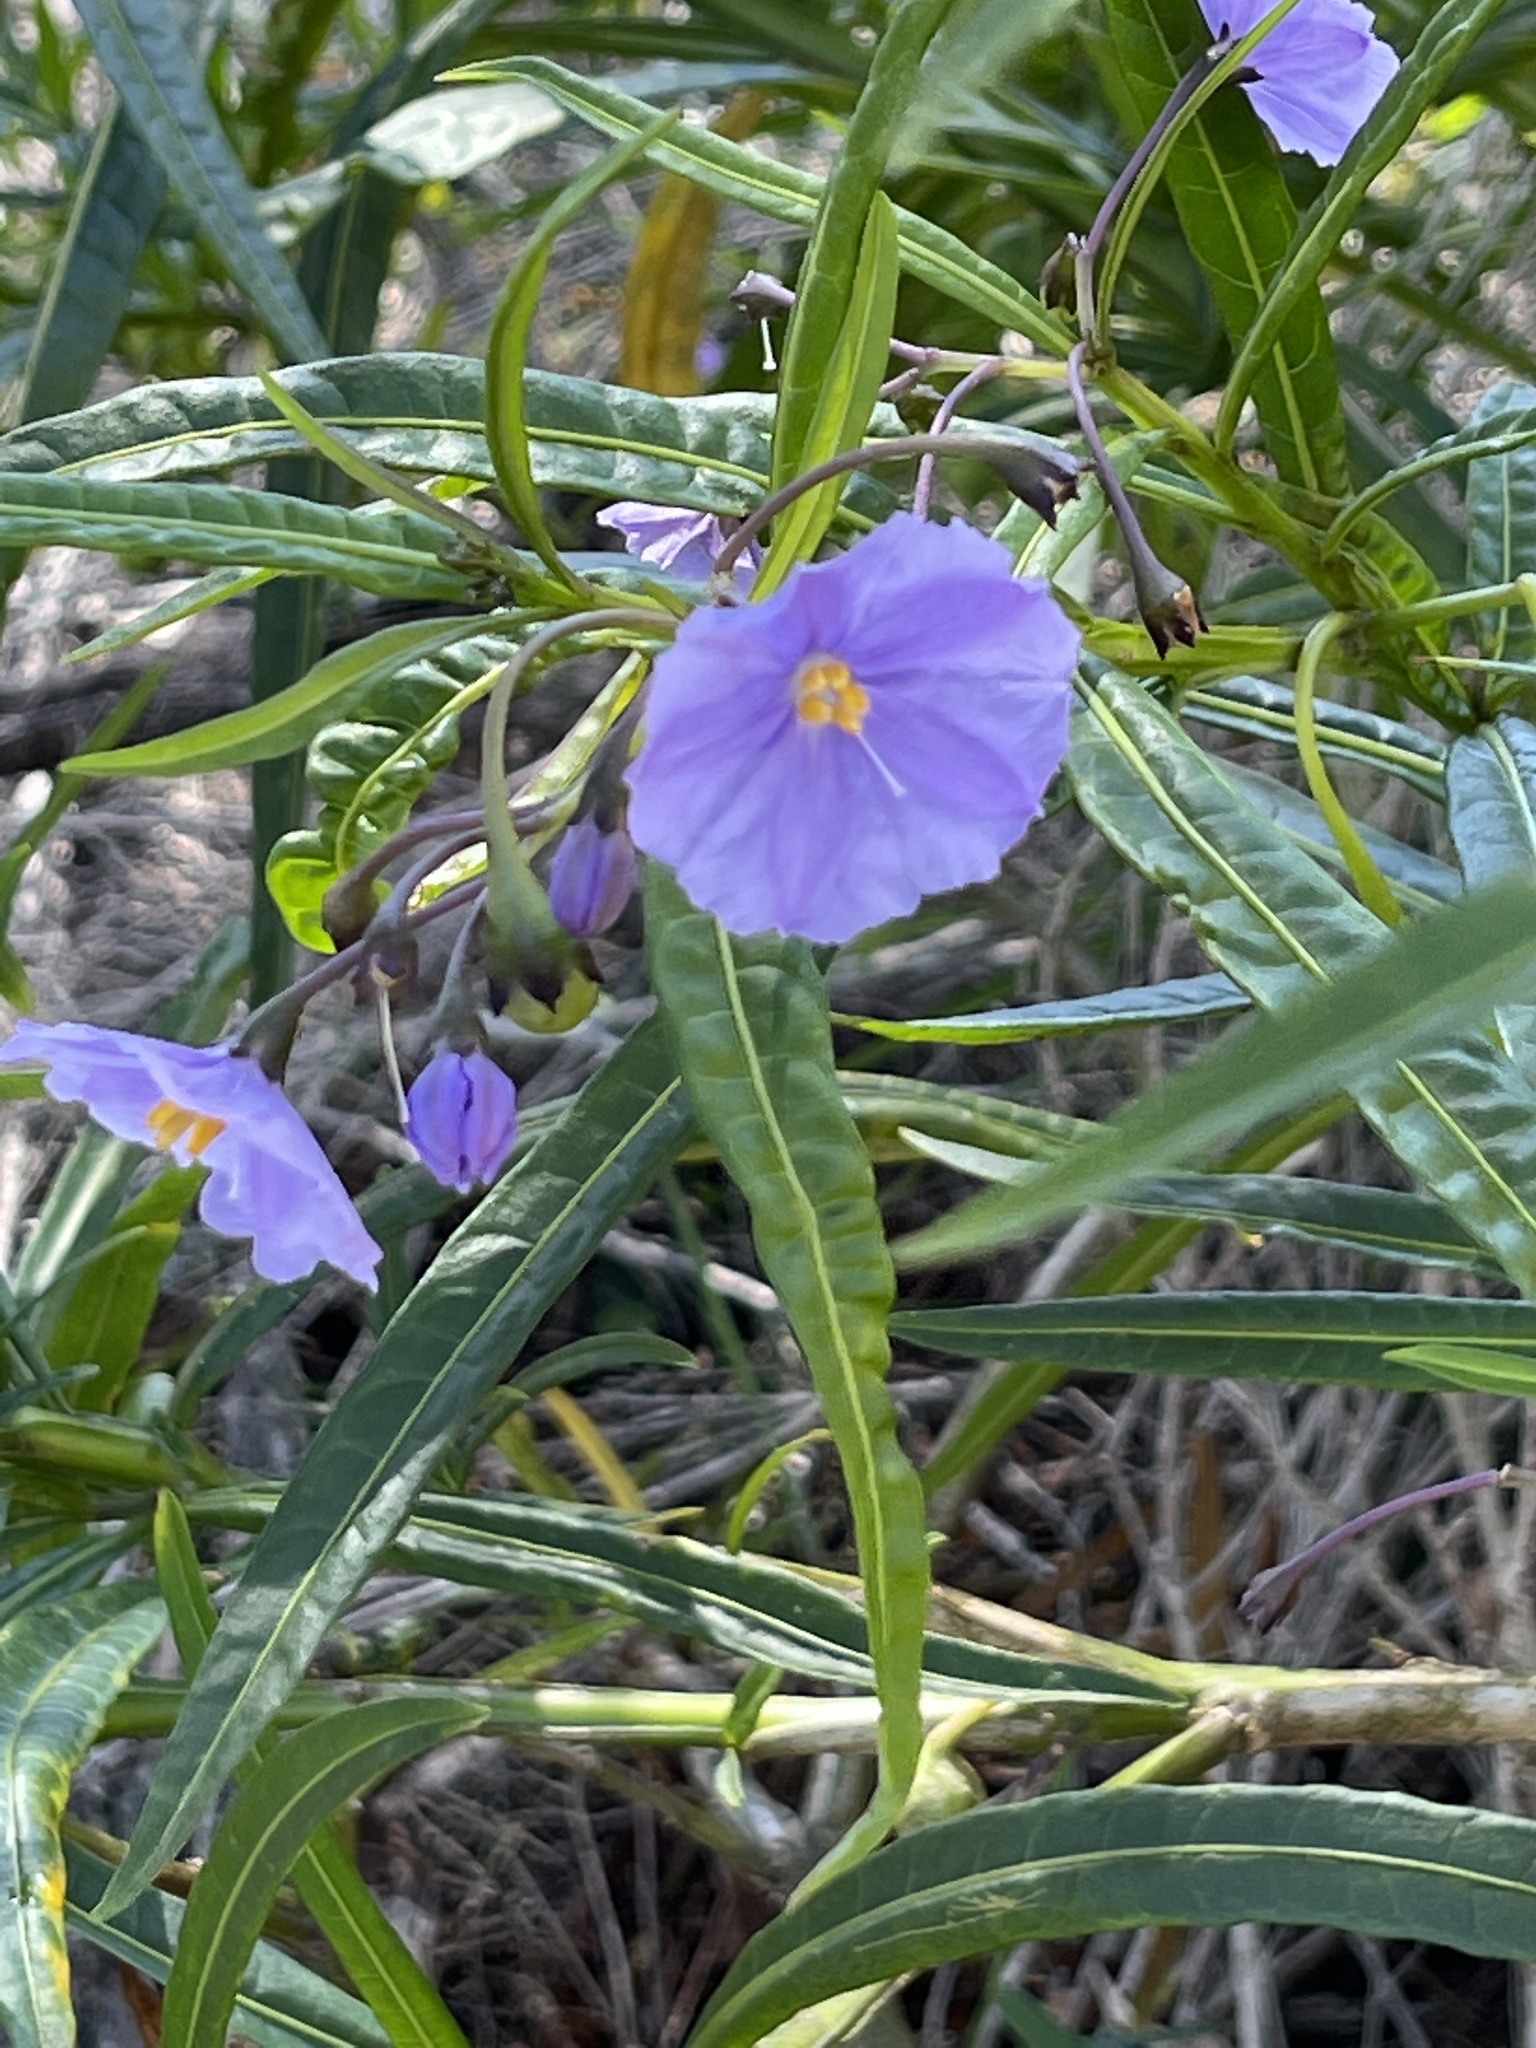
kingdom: Plantae
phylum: Tracheophyta
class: Magnoliopsida
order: Solanales
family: Solanaceae
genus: Solanum
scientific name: Solanum vescum
